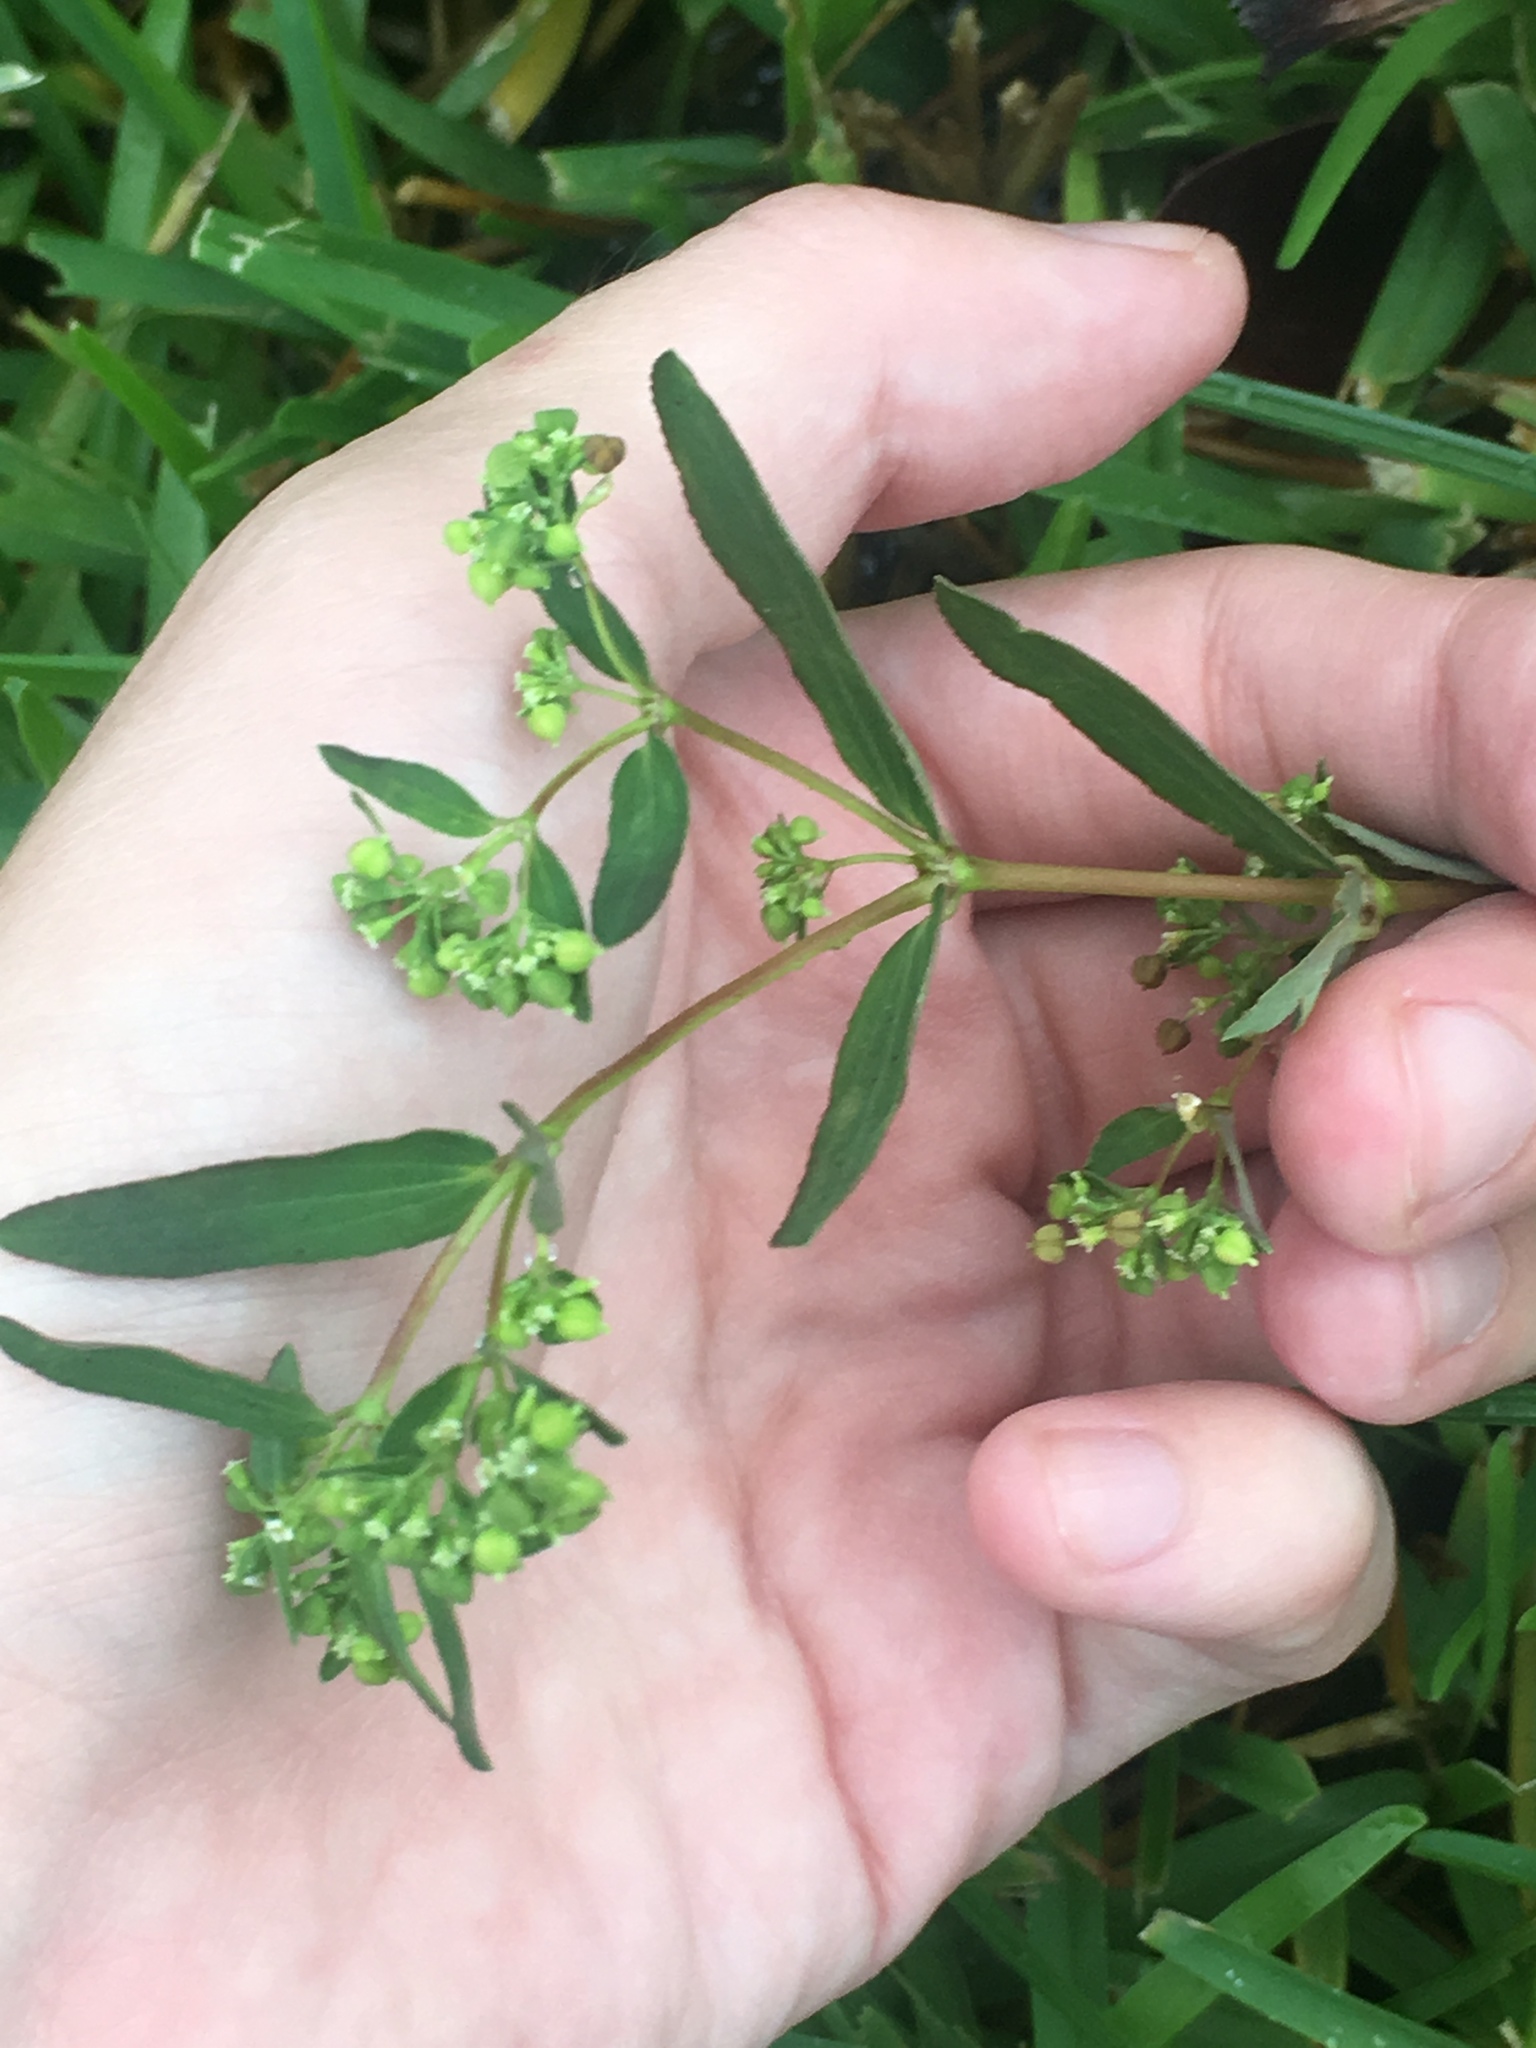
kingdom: Plantae
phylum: Tracheophyta
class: Magnoliopsida
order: Malpighiales
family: Euphorbiaceae
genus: Euphorbia
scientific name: Euphorbia hyssopifolia
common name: Hyssopleaf sandmat
